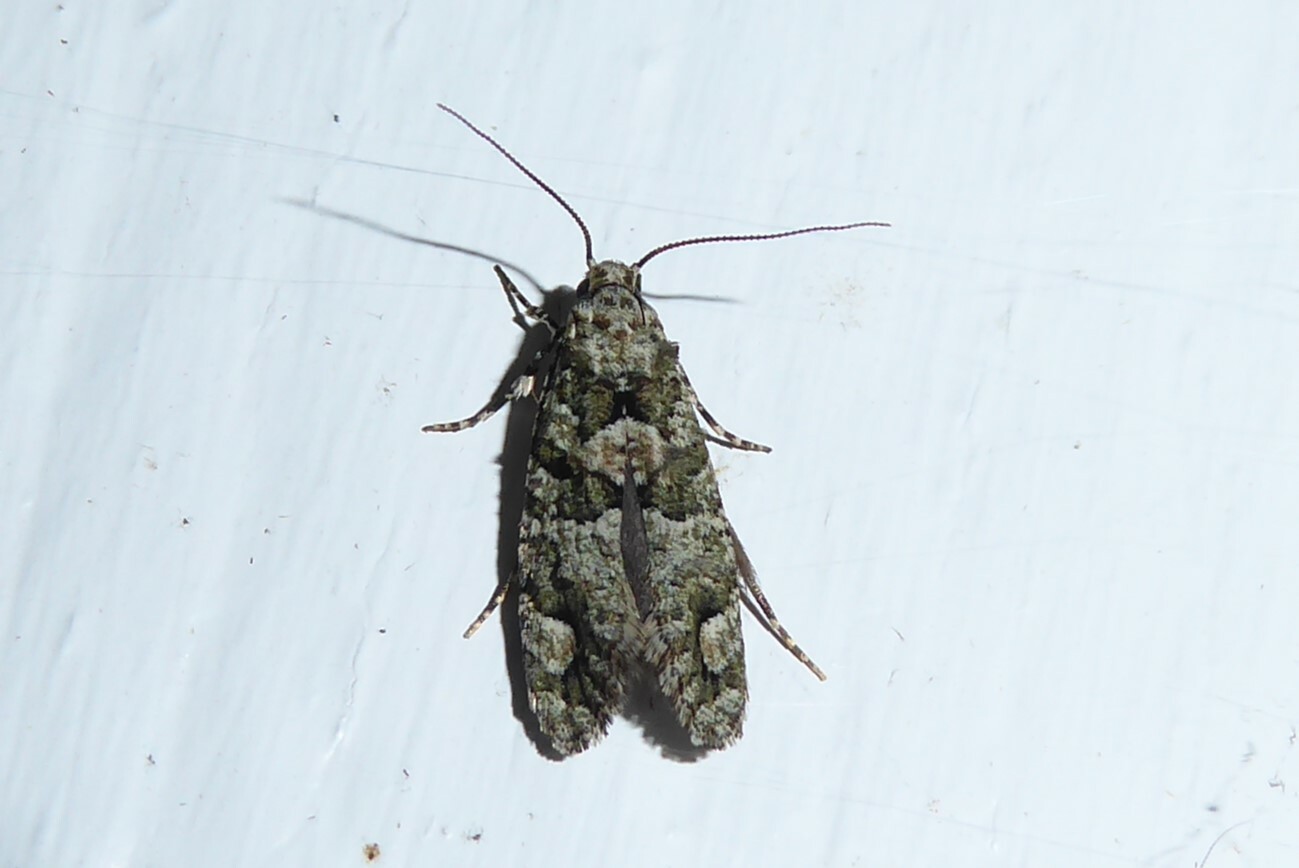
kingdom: Animalia
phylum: Arthropoda
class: Insecta
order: Lepidoptera
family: Tineidae
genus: Lysiphragma
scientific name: Lysiphragma howesii
